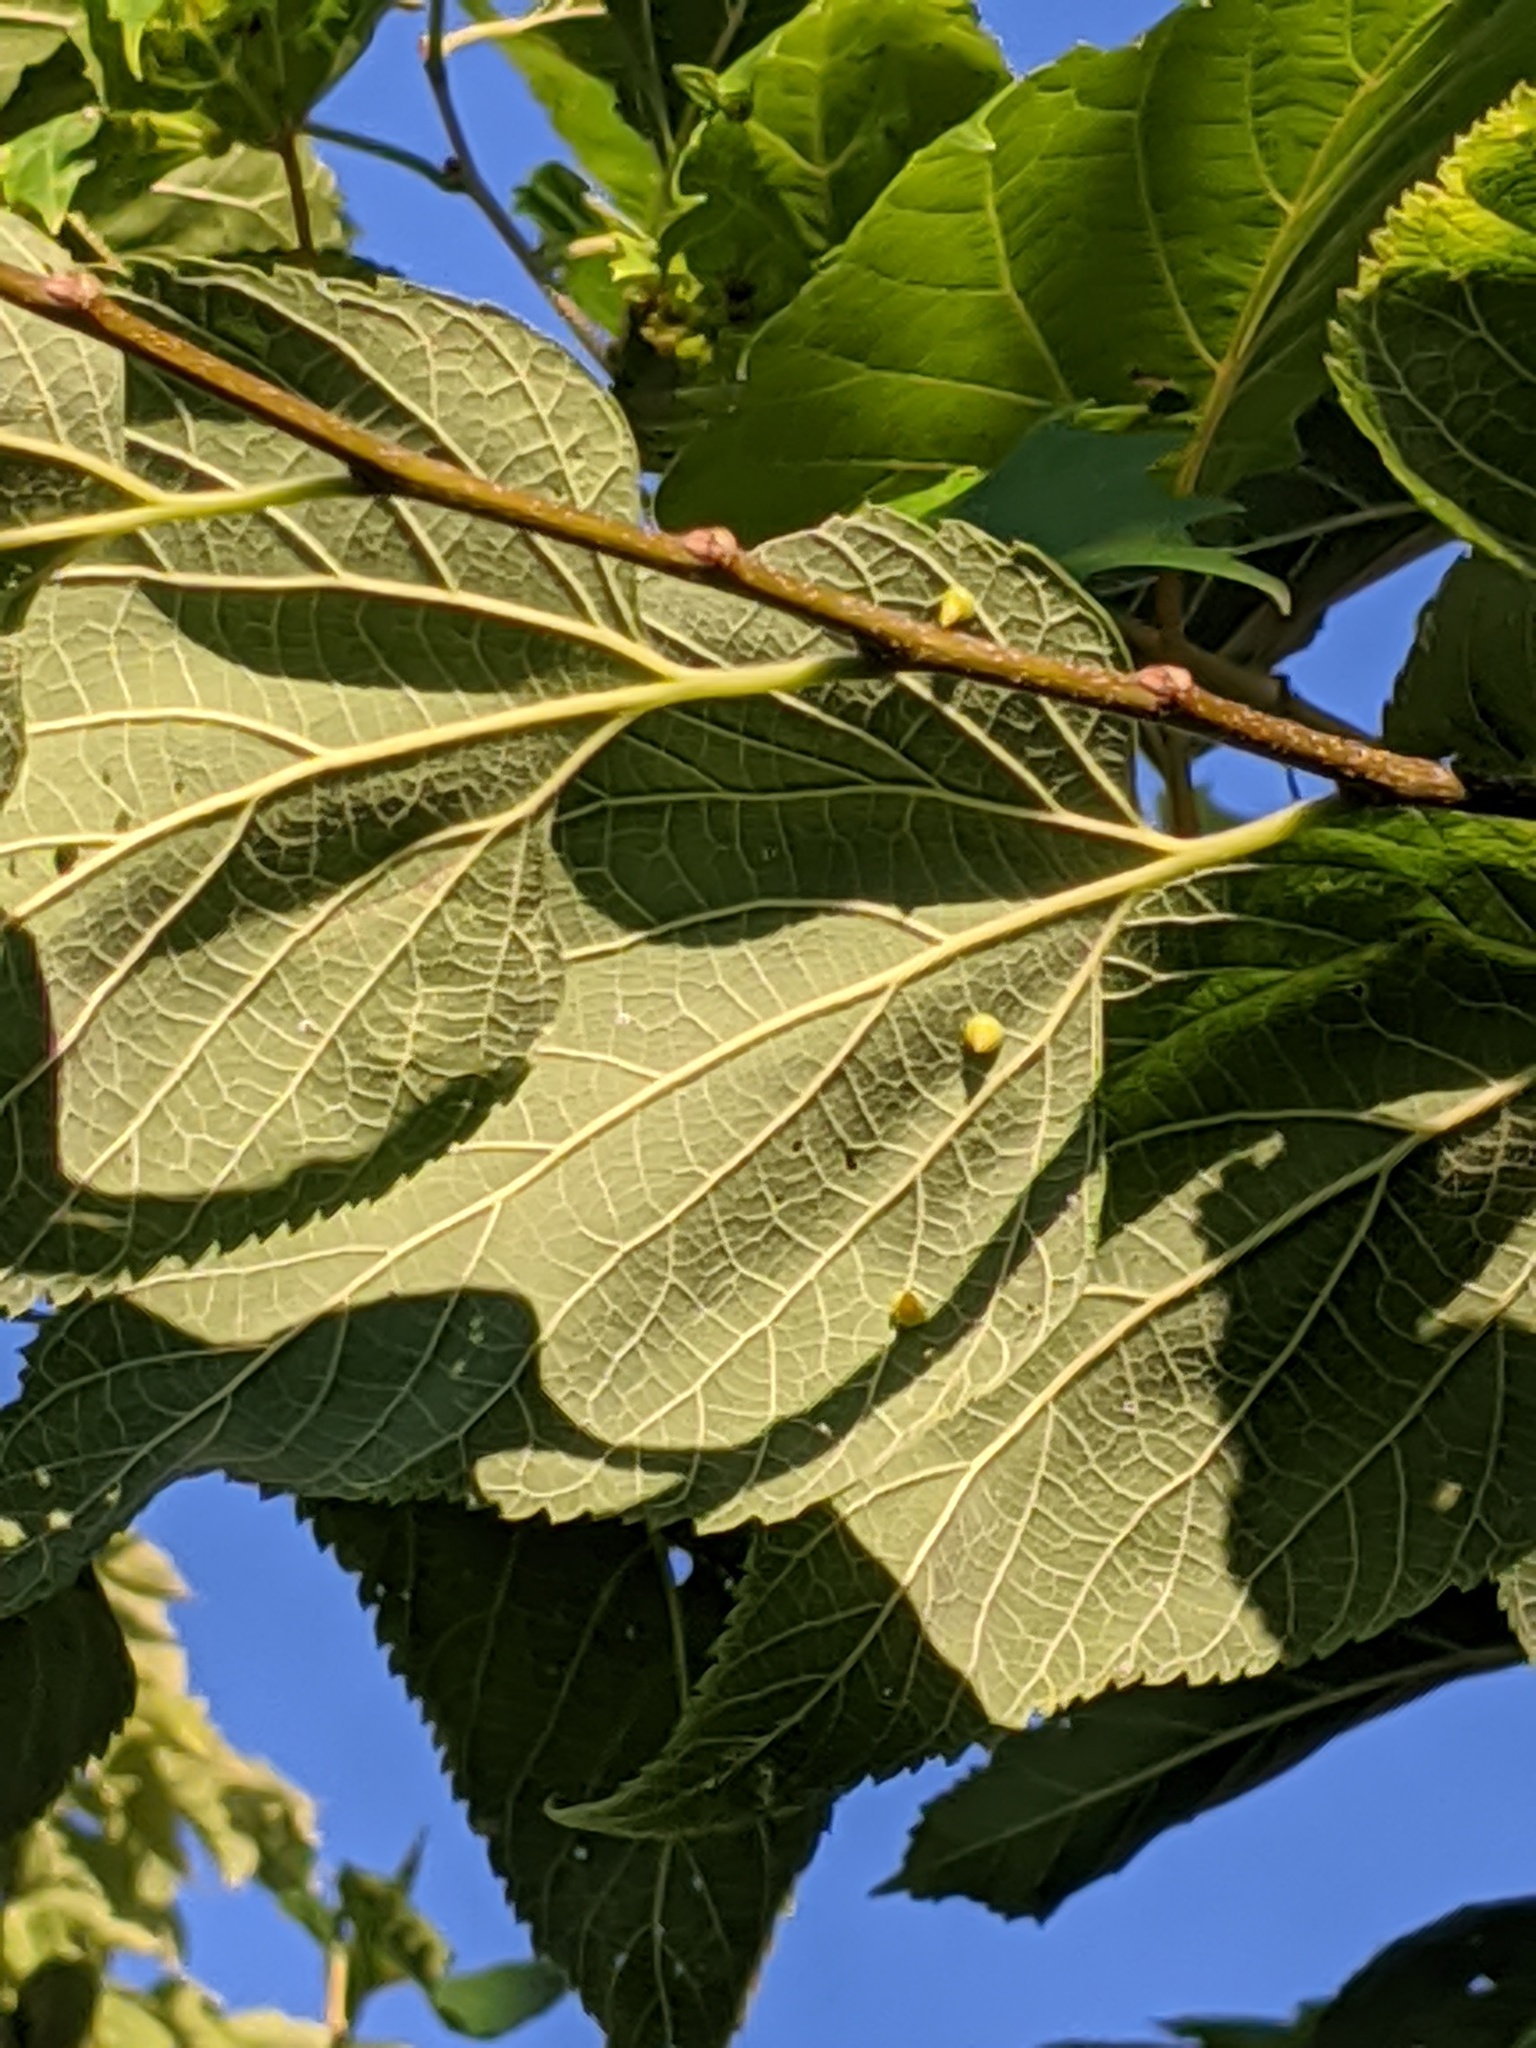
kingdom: Animalia
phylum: Arthropoda
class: Insecta
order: Diptera
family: Cecidomyiidae
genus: Celticecis
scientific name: Celticecis spiniformis
